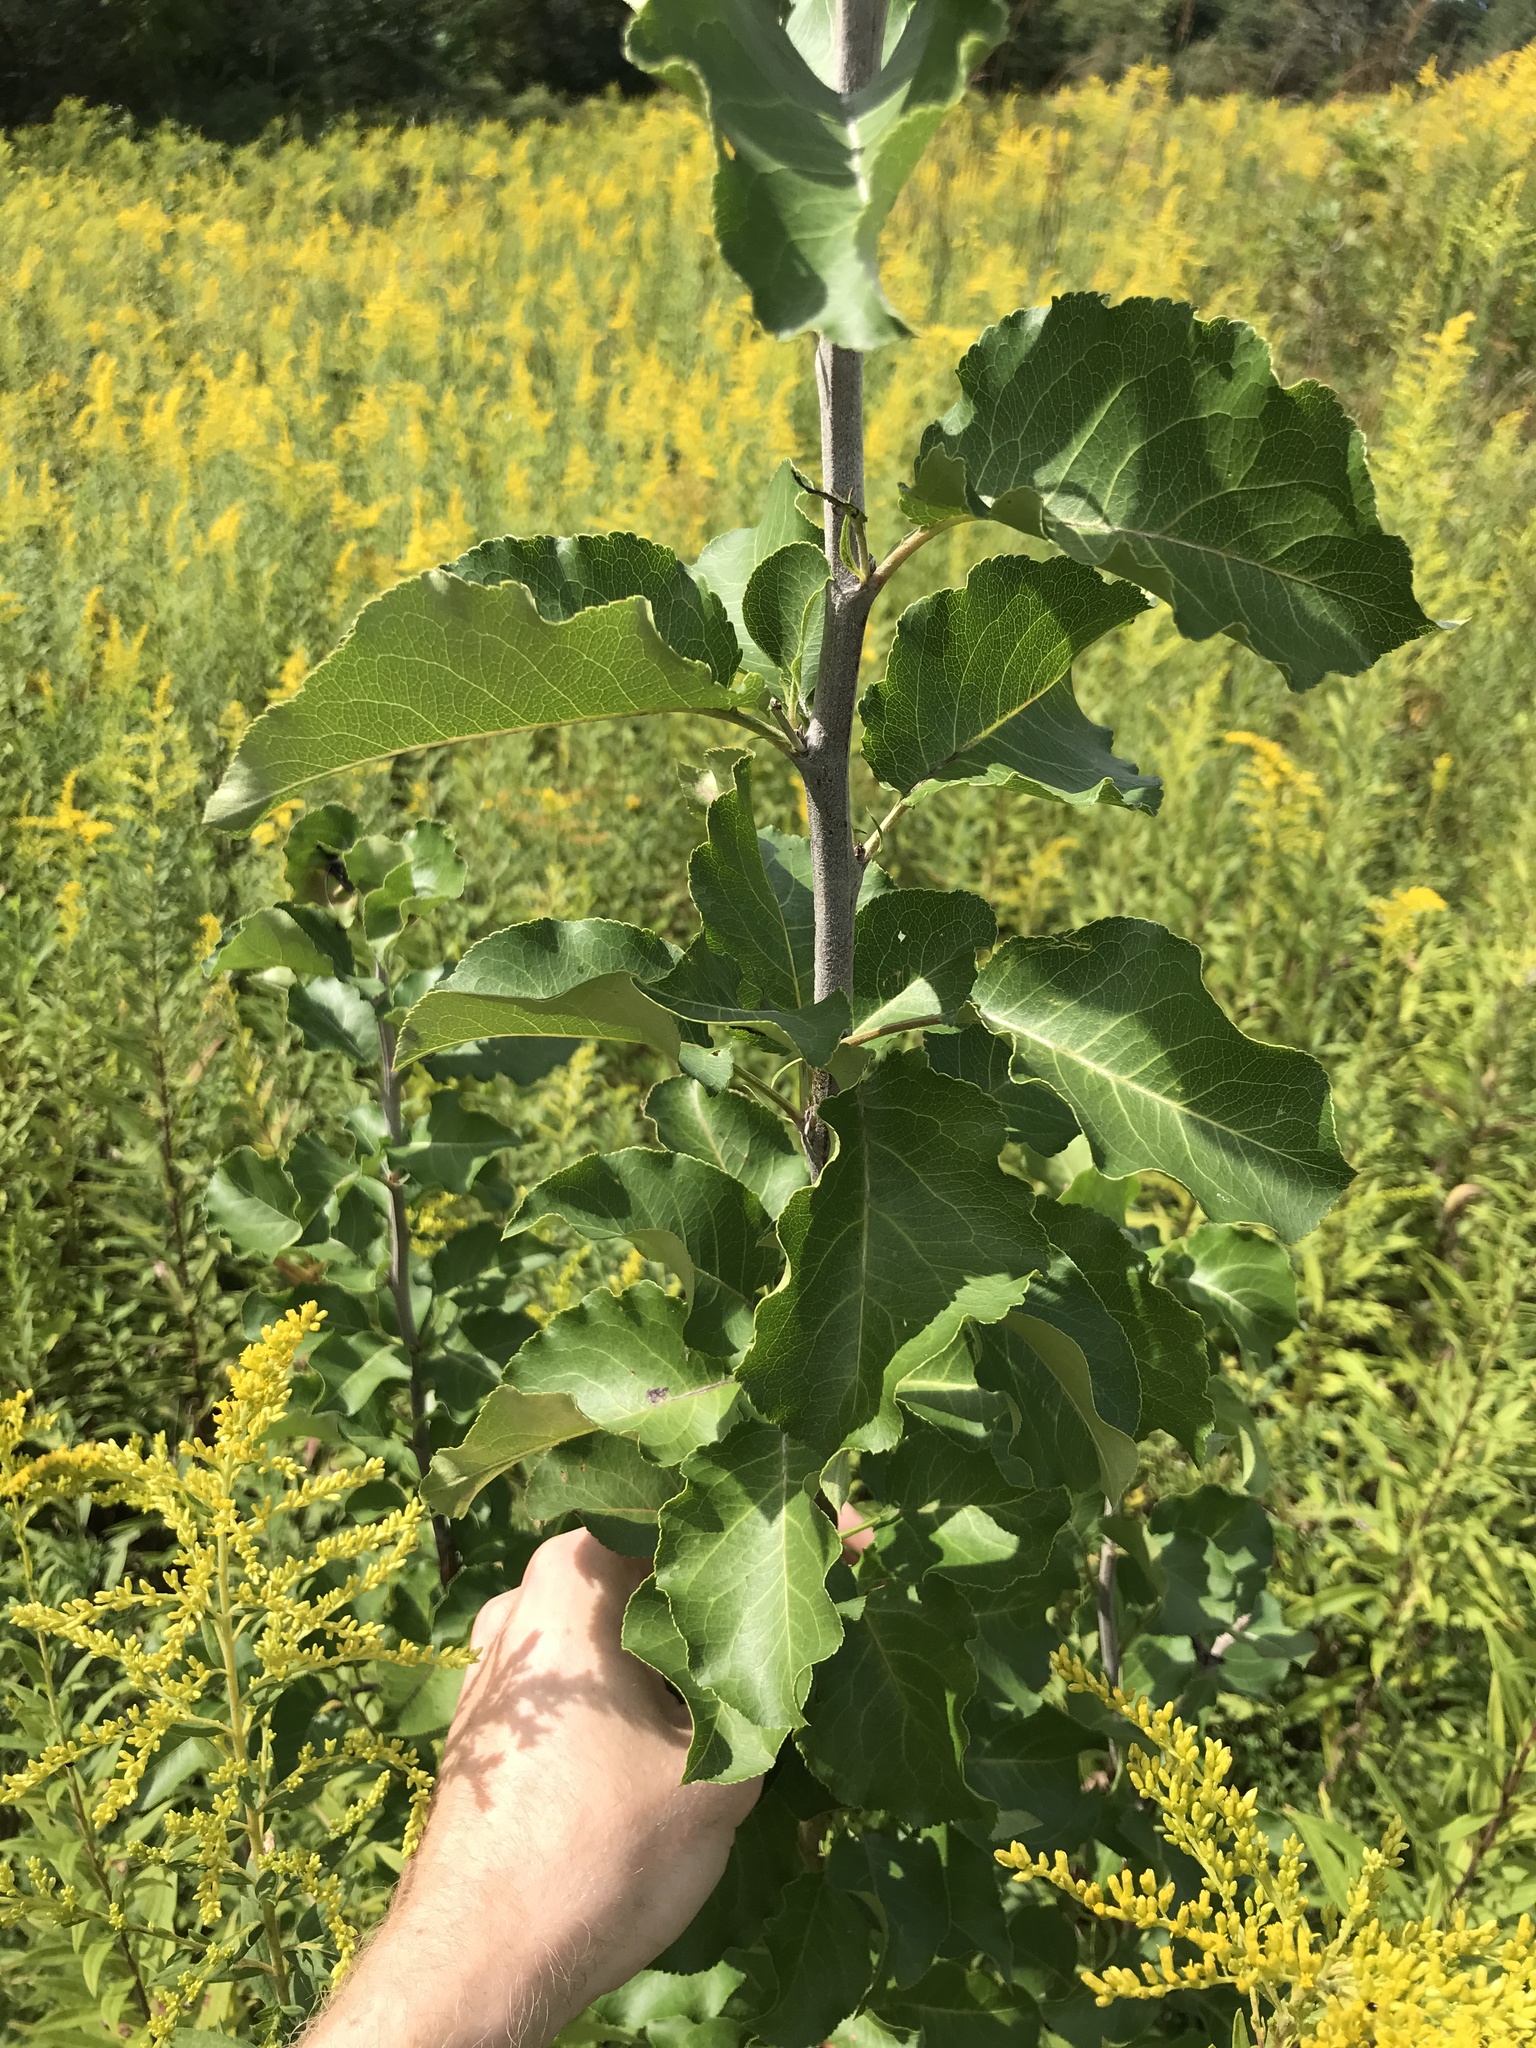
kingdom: Plantae
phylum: Tracheophyta
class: Magnoliopsida
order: Rosales
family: Rosaceae
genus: Pyrus
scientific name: Pyrus calleryana
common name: Callery pear
